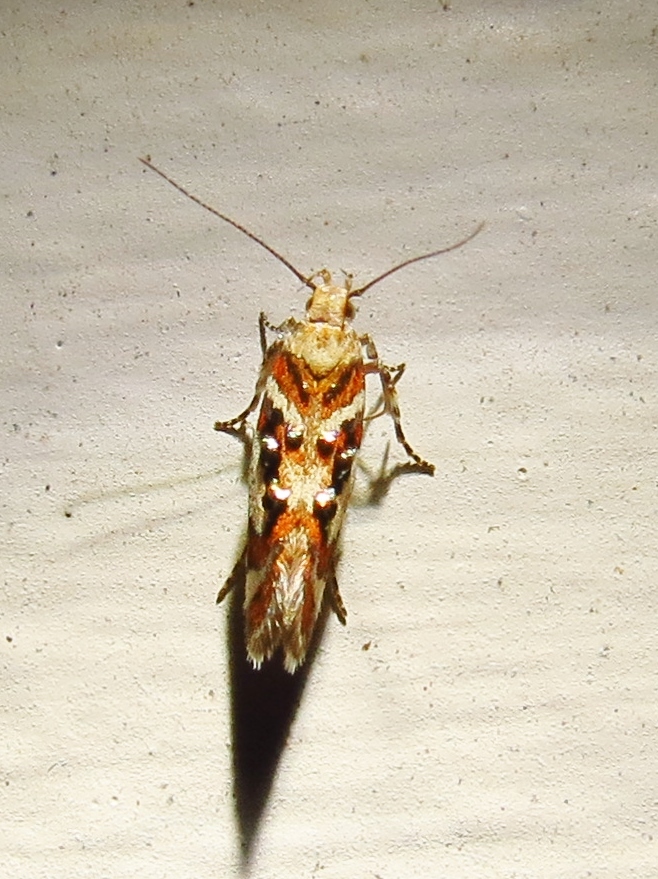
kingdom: Animalia
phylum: Arthropoda
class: Insecta
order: Lepidoptera
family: Gelechiidae
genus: Aristotelia
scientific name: Aristotelia elegantella
